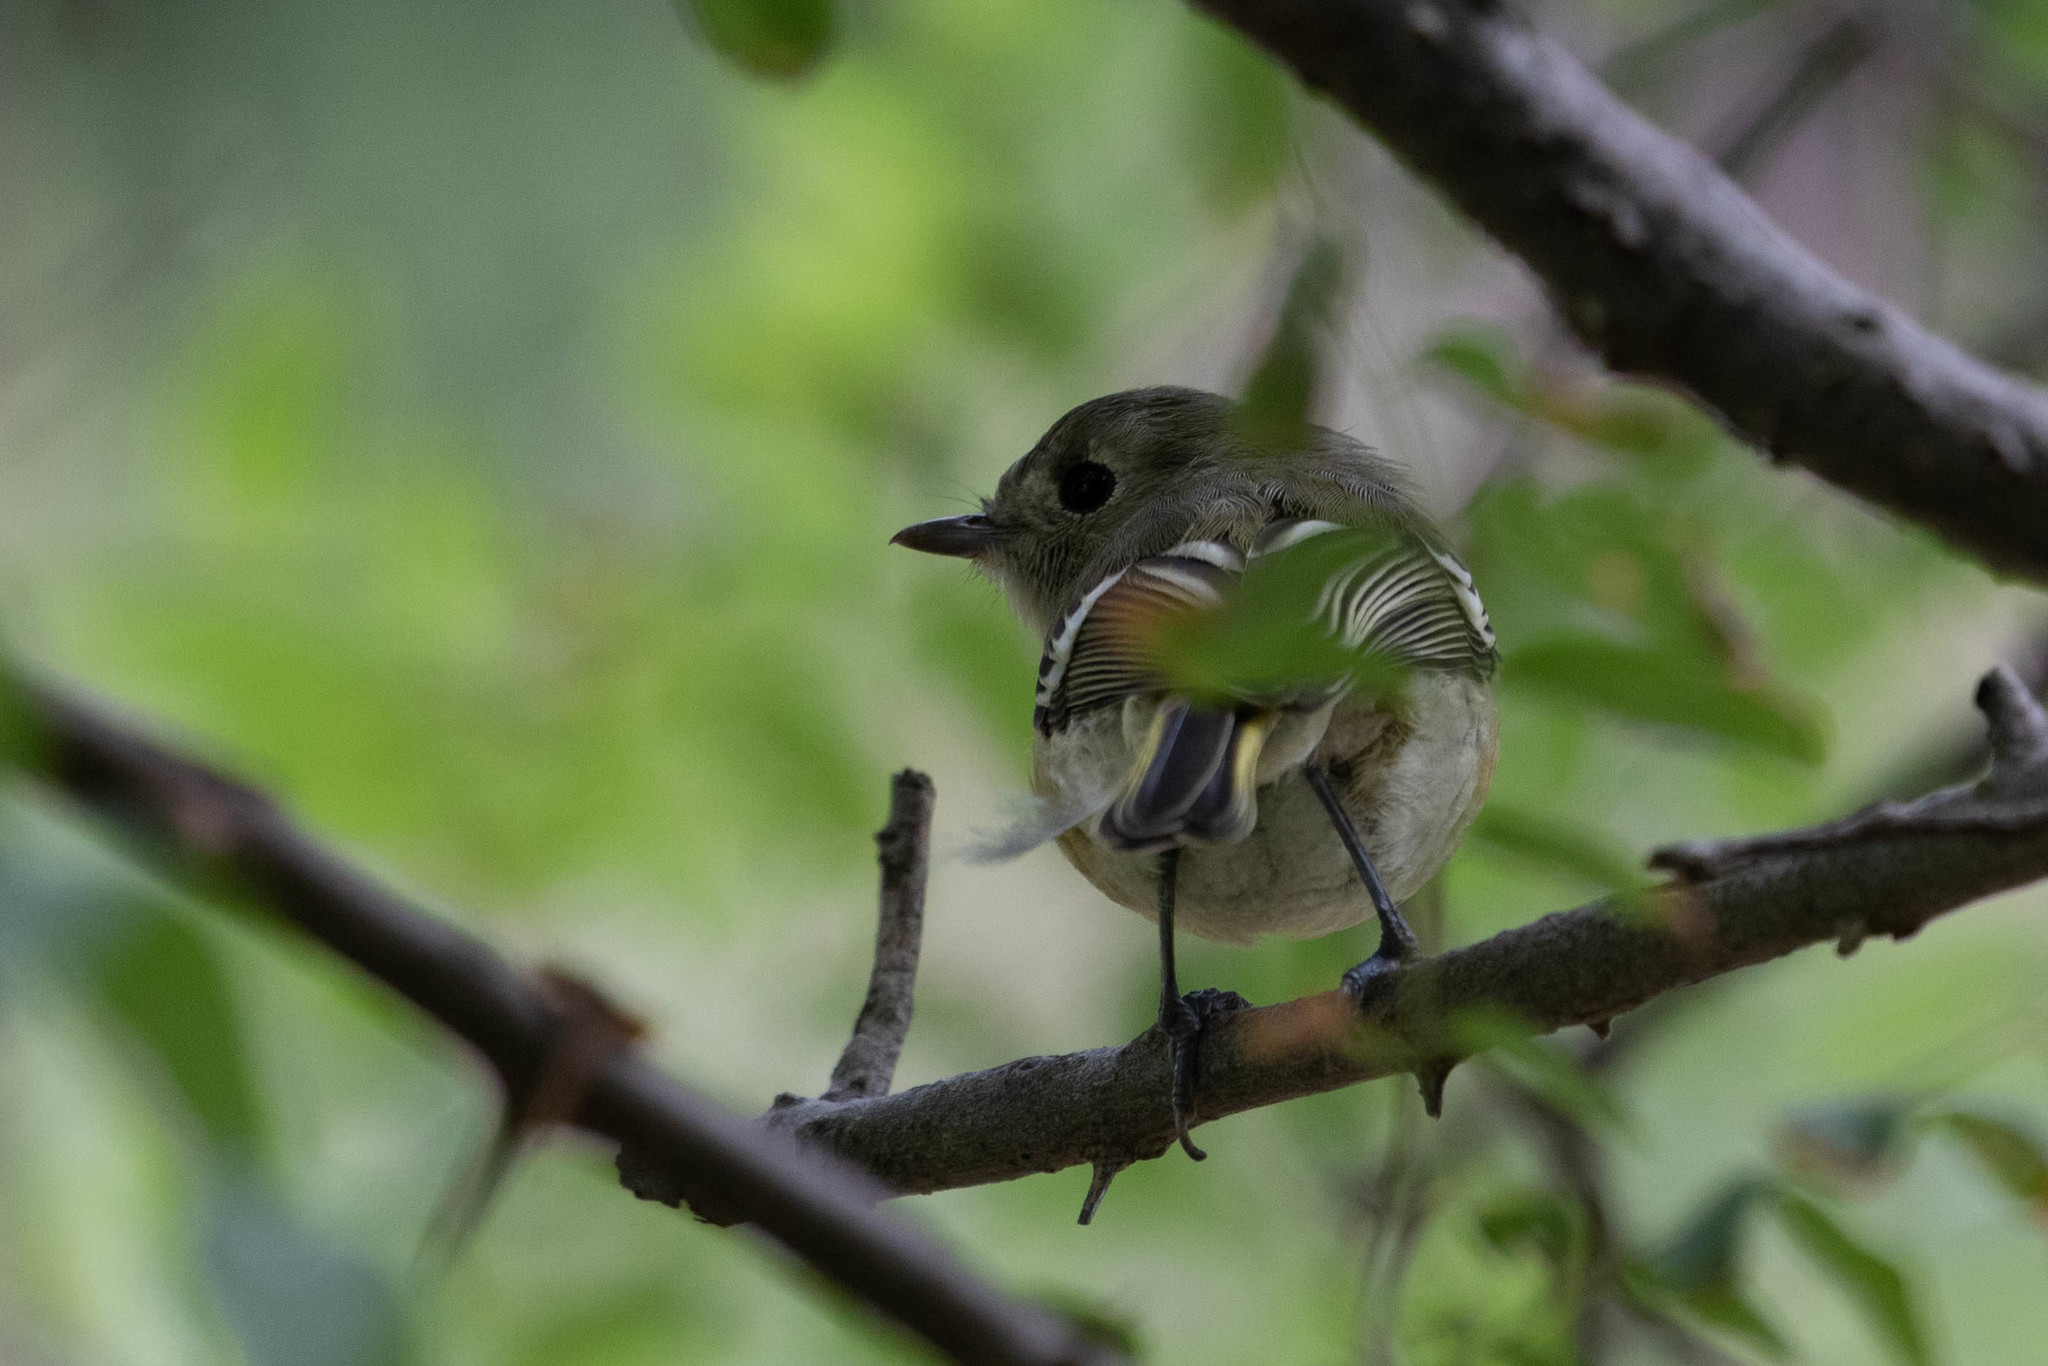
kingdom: Animalia
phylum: Chordata
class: Aves
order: Passeriformes
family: Vireonidae
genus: Vireo
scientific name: Vireo huttoni
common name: Hutton's vireo
